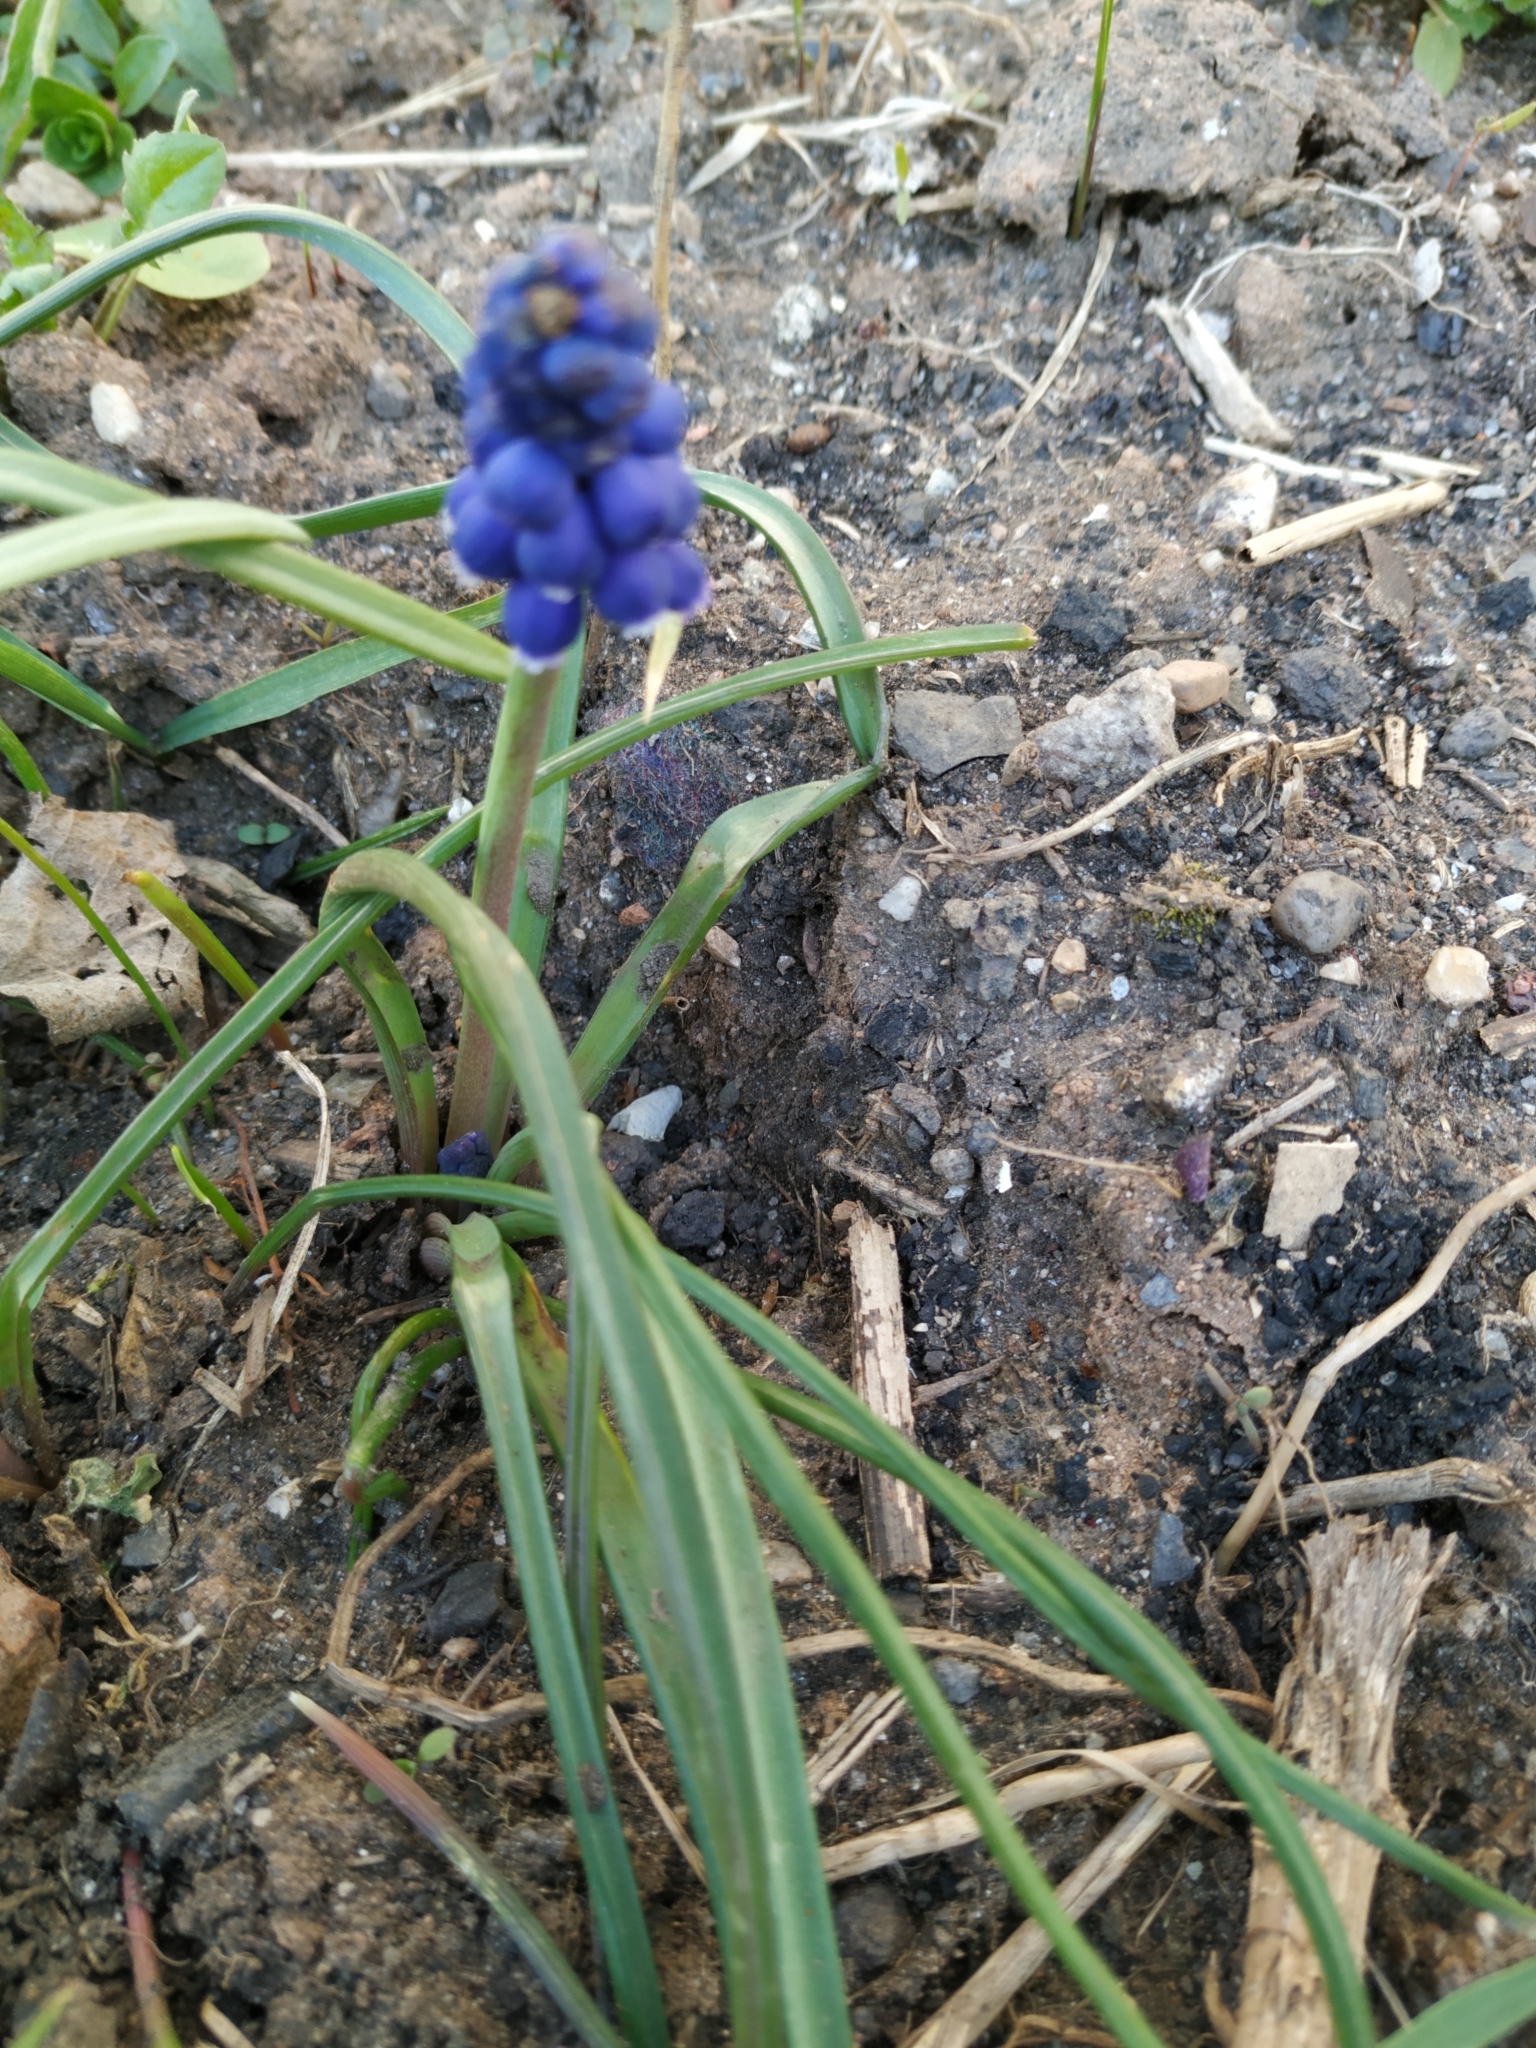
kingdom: Plantae
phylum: Tracheophyta
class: Liliopsida
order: Asparagales
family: Asparagaceae
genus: Muscari
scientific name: Muscari armeniacum
